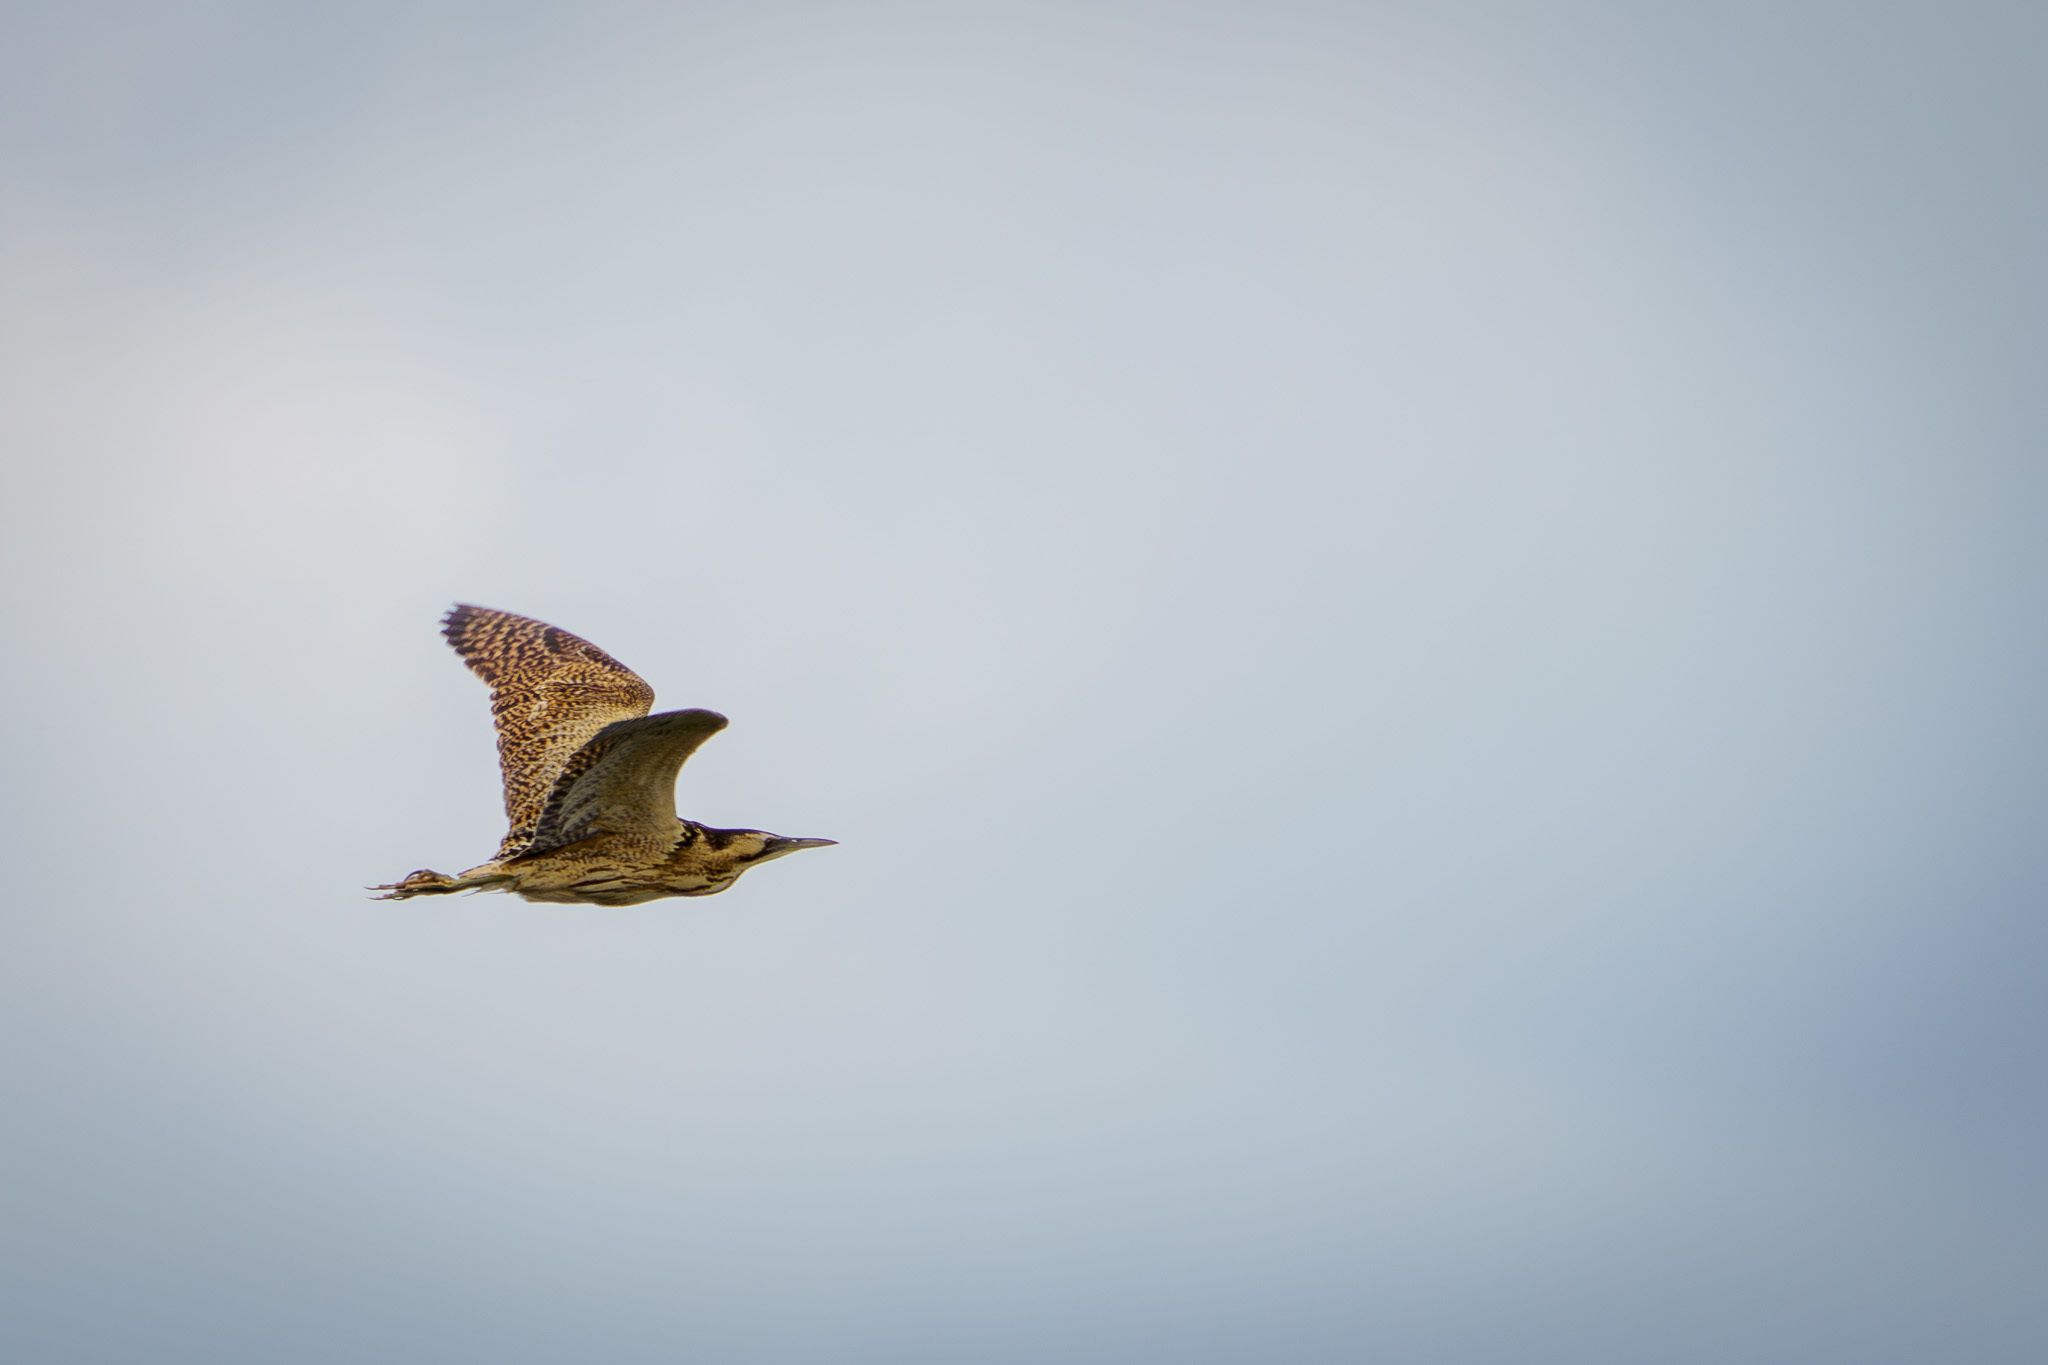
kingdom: Animalia
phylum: Chordata
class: Aves
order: Pelecaniformes
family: Ardeidae
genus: Botaurus
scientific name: Botaurus stellaris
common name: Eurasian bittern
